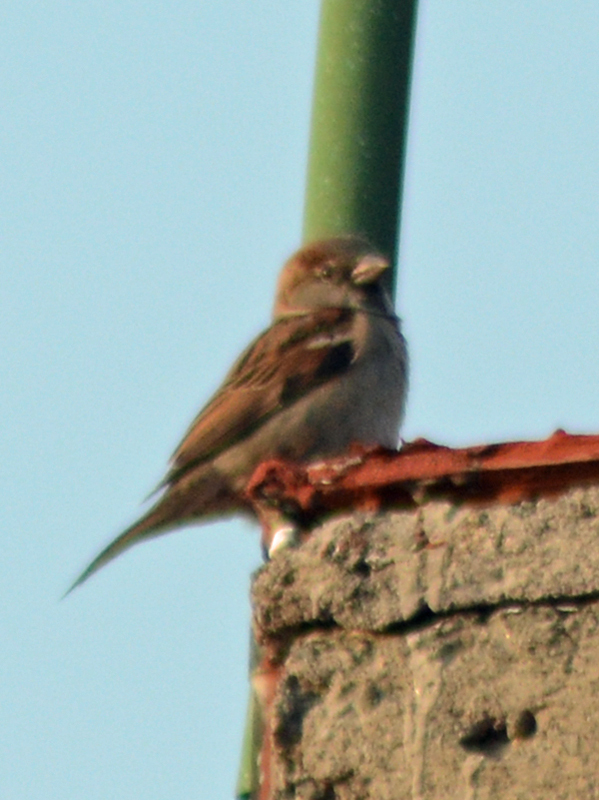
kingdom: Animalia
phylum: Chordata
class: Aves
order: Passeriformes
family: Passeridae
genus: Passer
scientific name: Passer domesticus
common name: House sparrow
